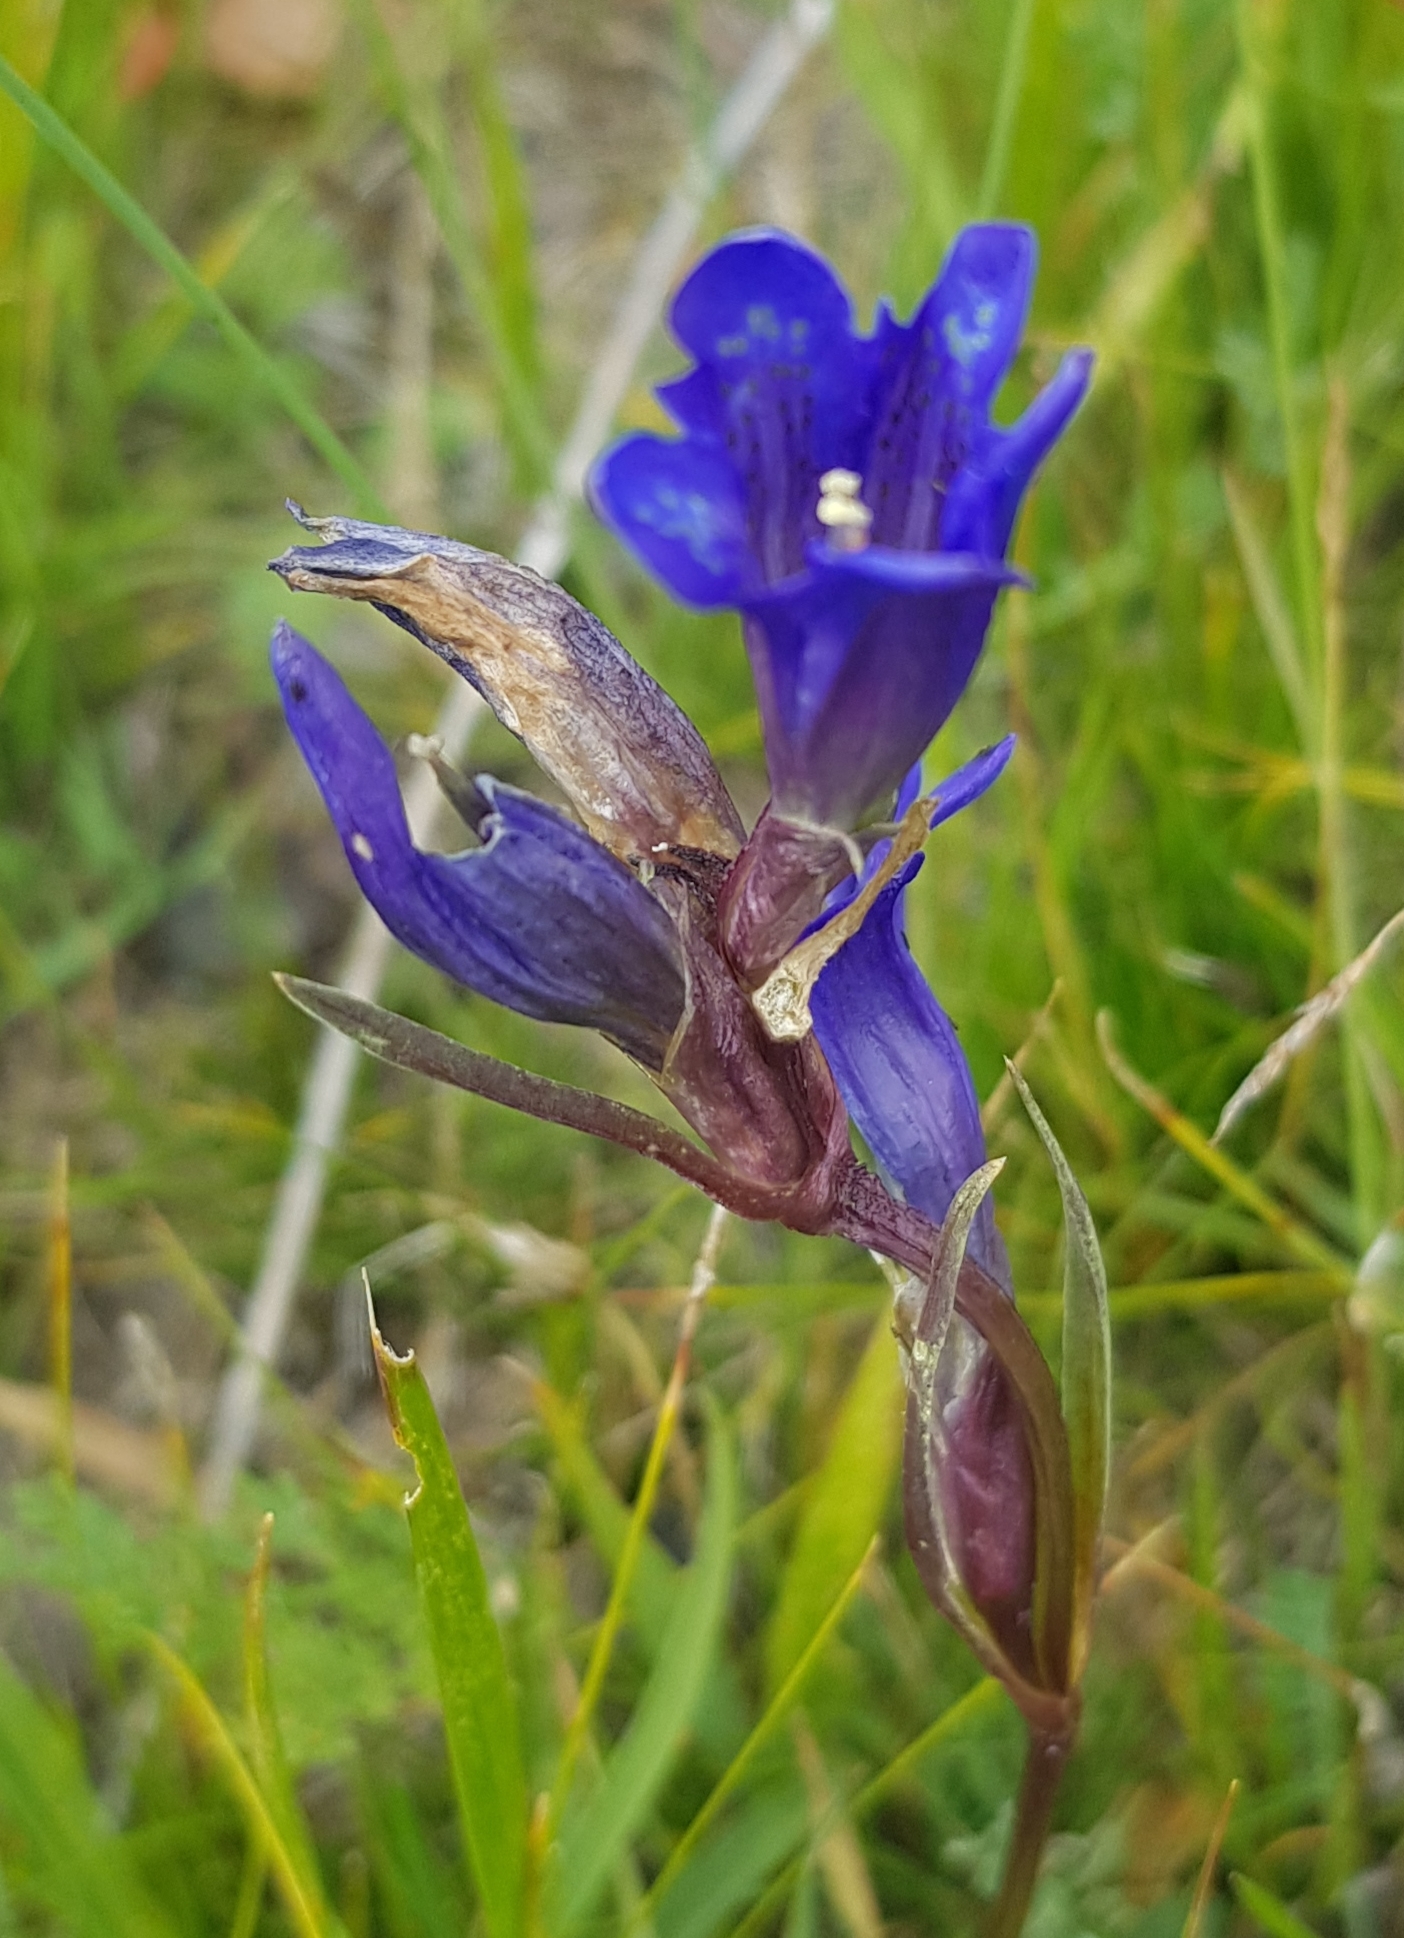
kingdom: Plantae
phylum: Tracheophyta
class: Magnoliopsida
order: Gentianales
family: Gentianaceae
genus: Gentiana
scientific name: Gentiana decumbens
